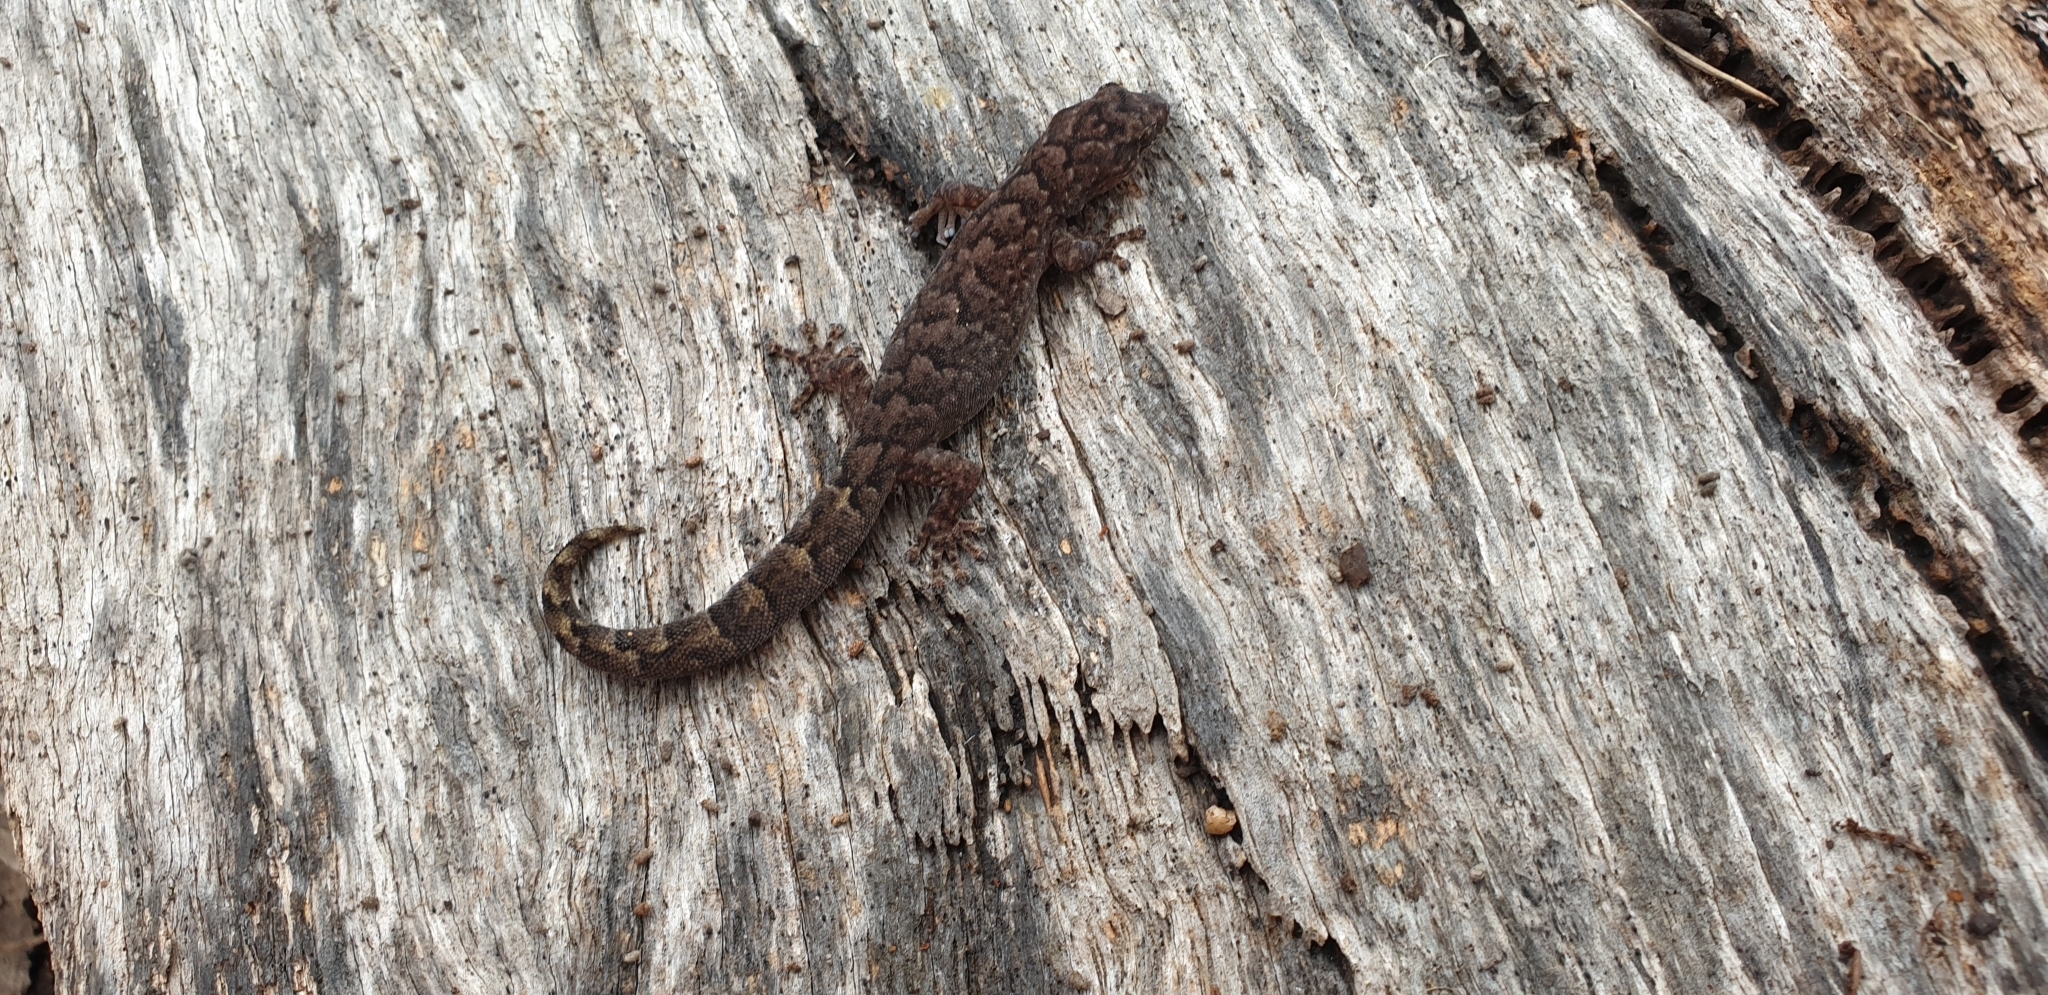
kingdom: Animalia
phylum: Chordata
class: Squamata
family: Gekkonidae
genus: Christinus
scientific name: Christinus marmoratus
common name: Marbled gecko
